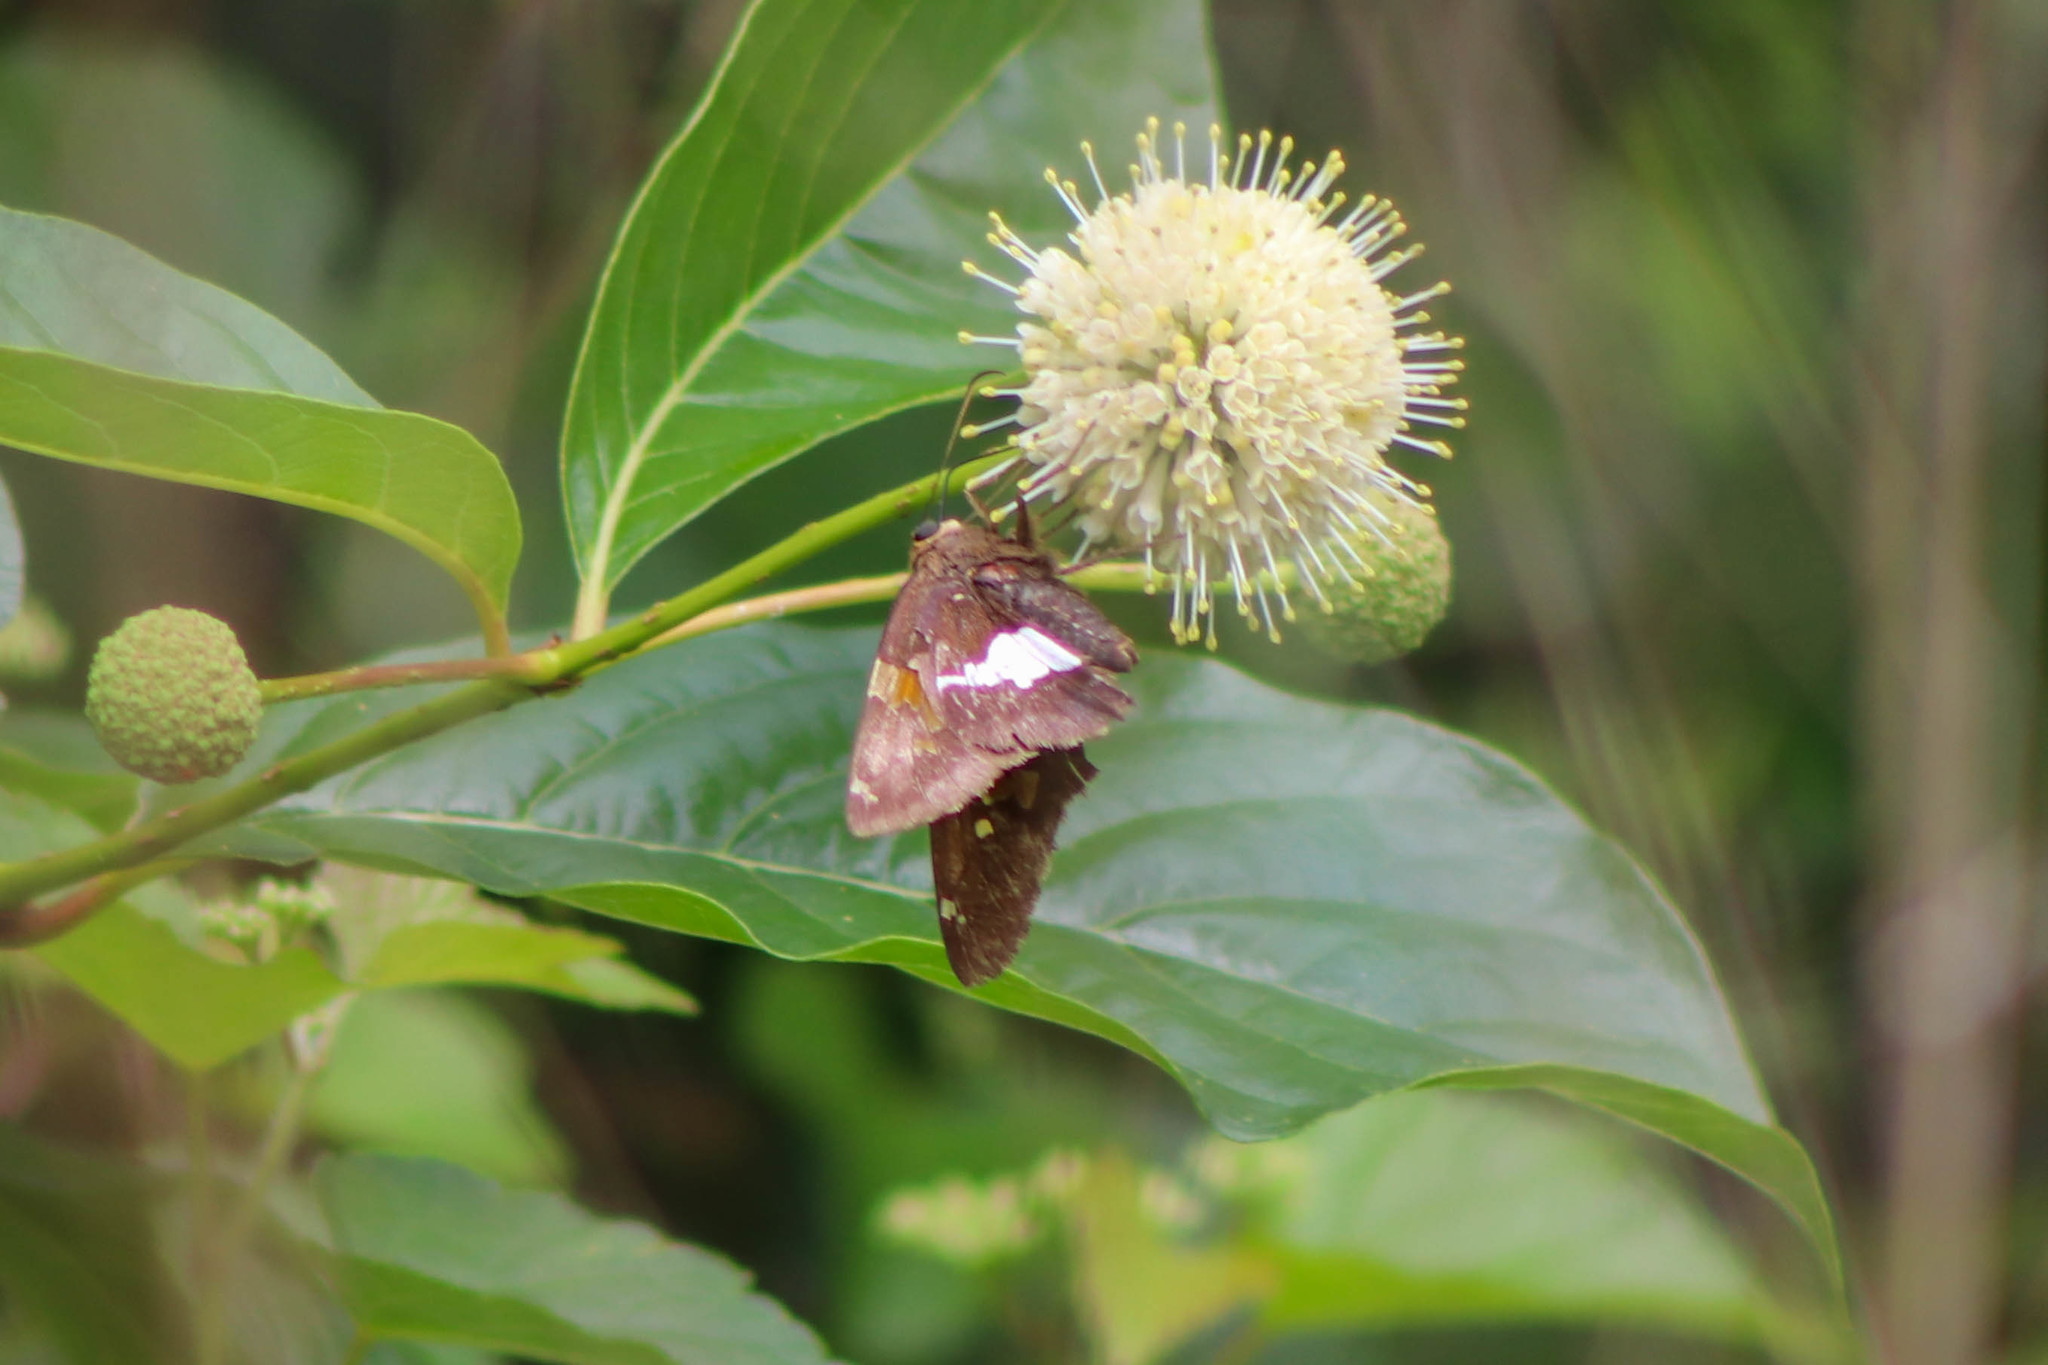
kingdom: Animalia
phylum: Arthropoda
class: Insecta
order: Lepidoptera
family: Hesperiidae
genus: Epargyreus
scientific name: Epargyreus clarus
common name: Silver-spotted skipper
